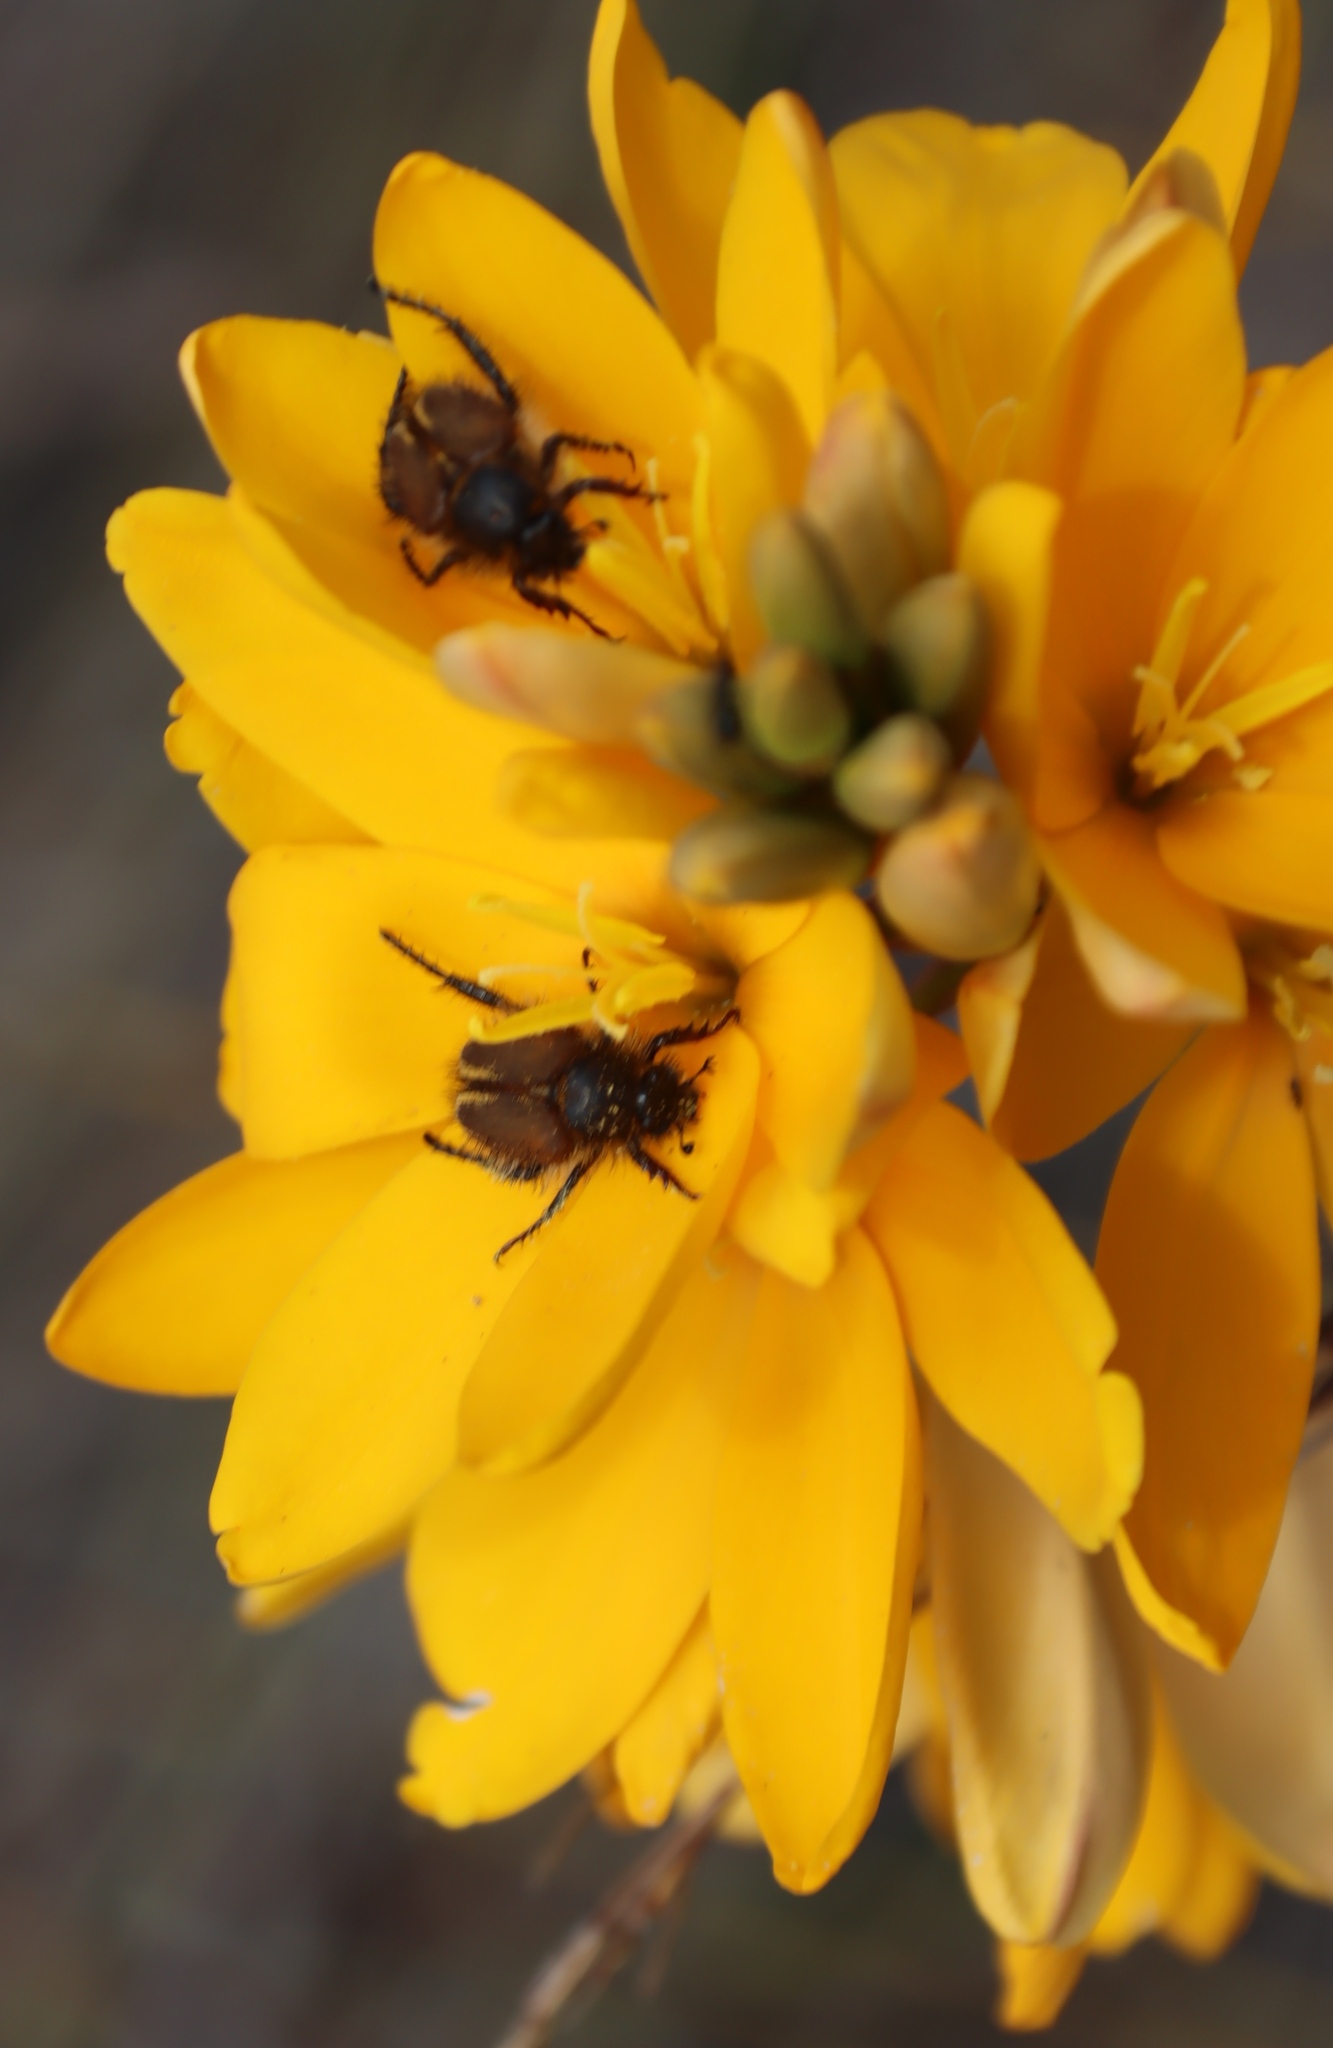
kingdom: Plantae
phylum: Tracheophyta
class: Liliopsida
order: Asparagales
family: Iridaceae
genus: Ixia
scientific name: Ixia dubia
